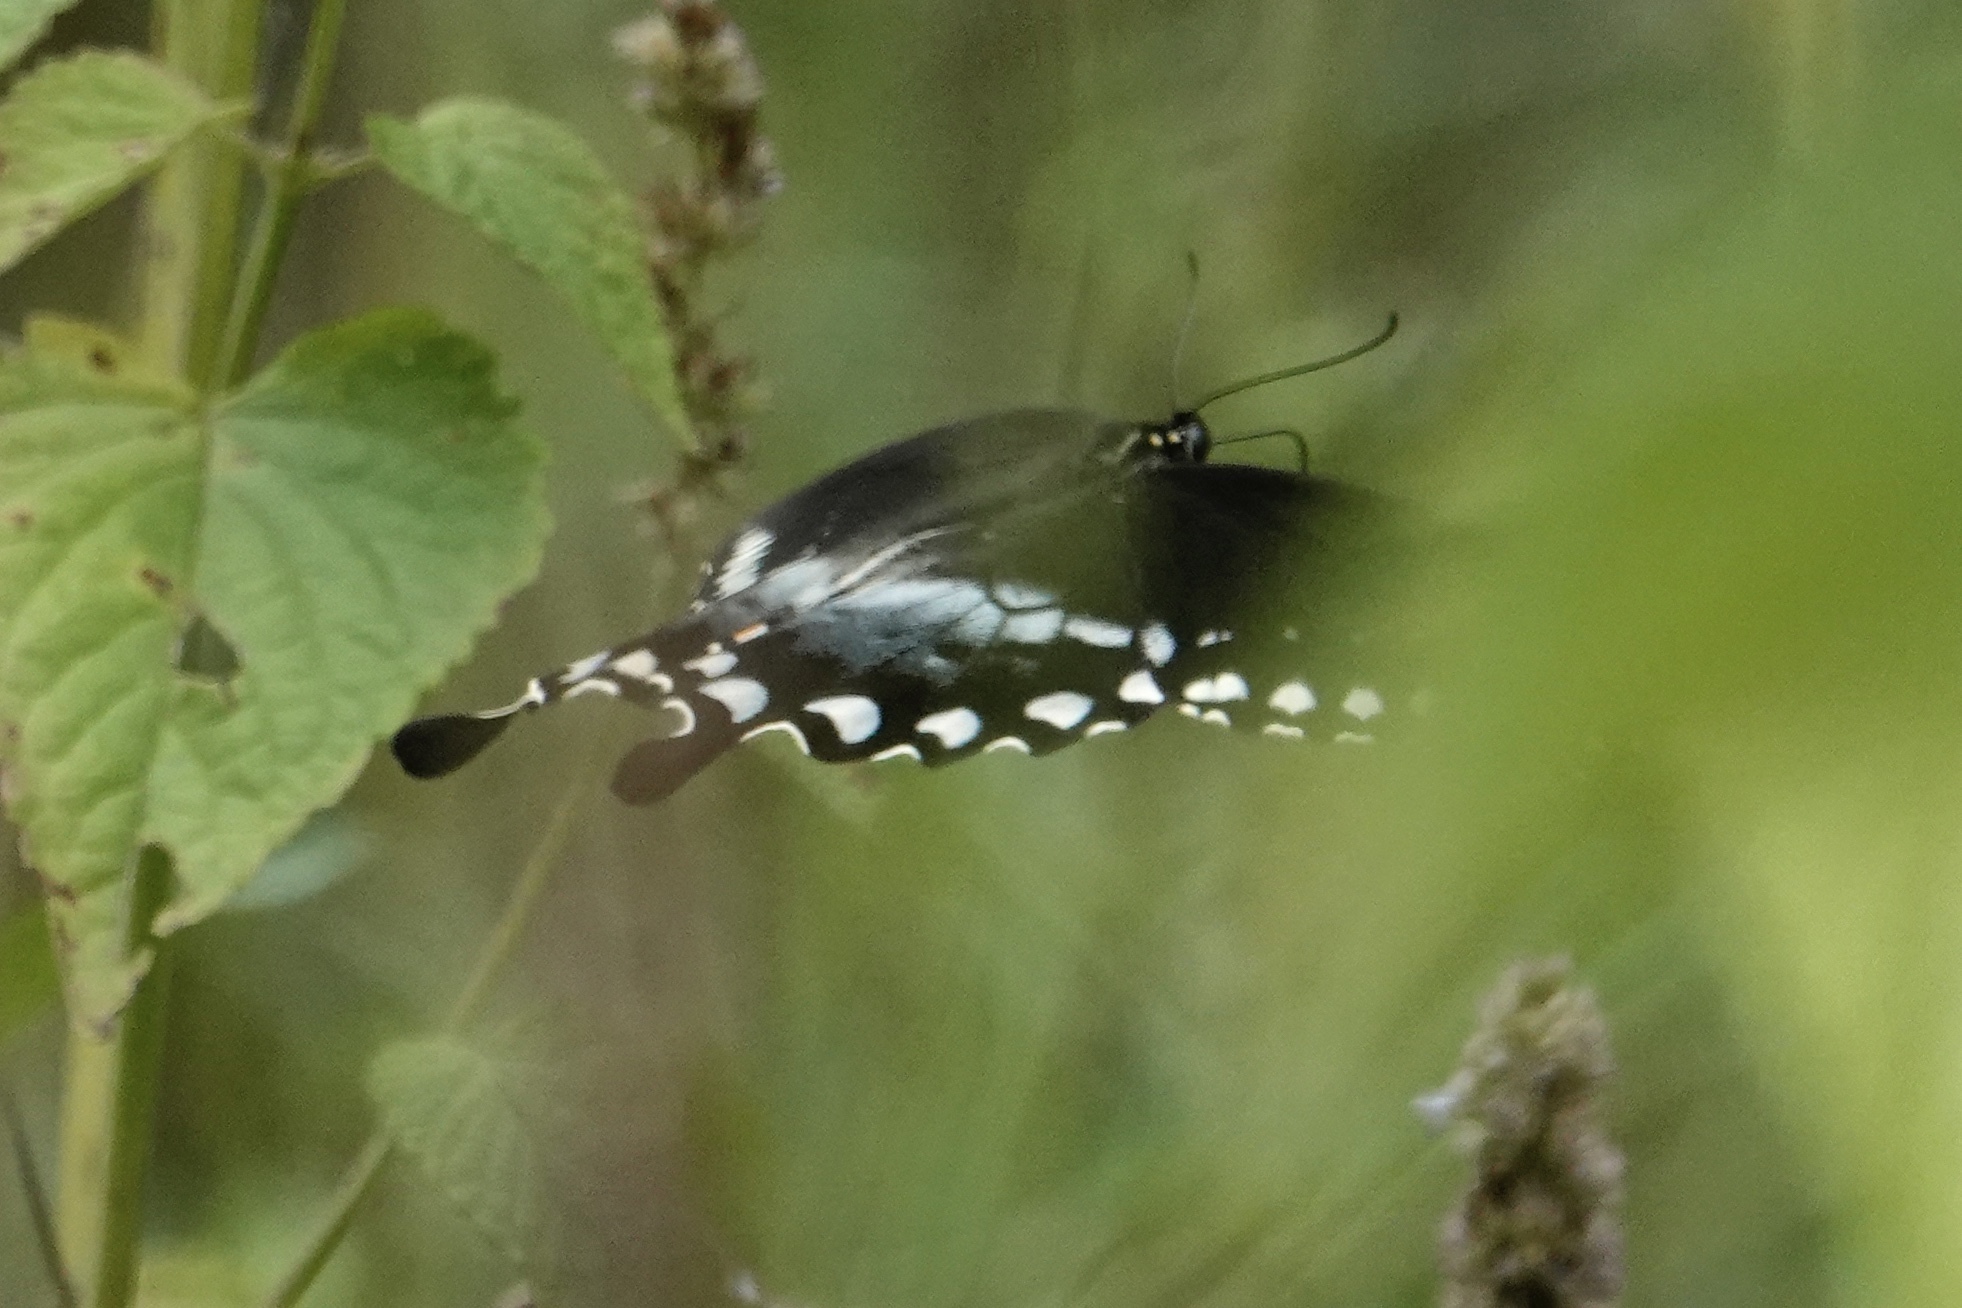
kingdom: Animalia
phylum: Arthropoda
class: Insecta
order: Lepidoptera
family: Papilionidae
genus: Papilio
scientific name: Papilio troilus
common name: Spicebush swallowtail
